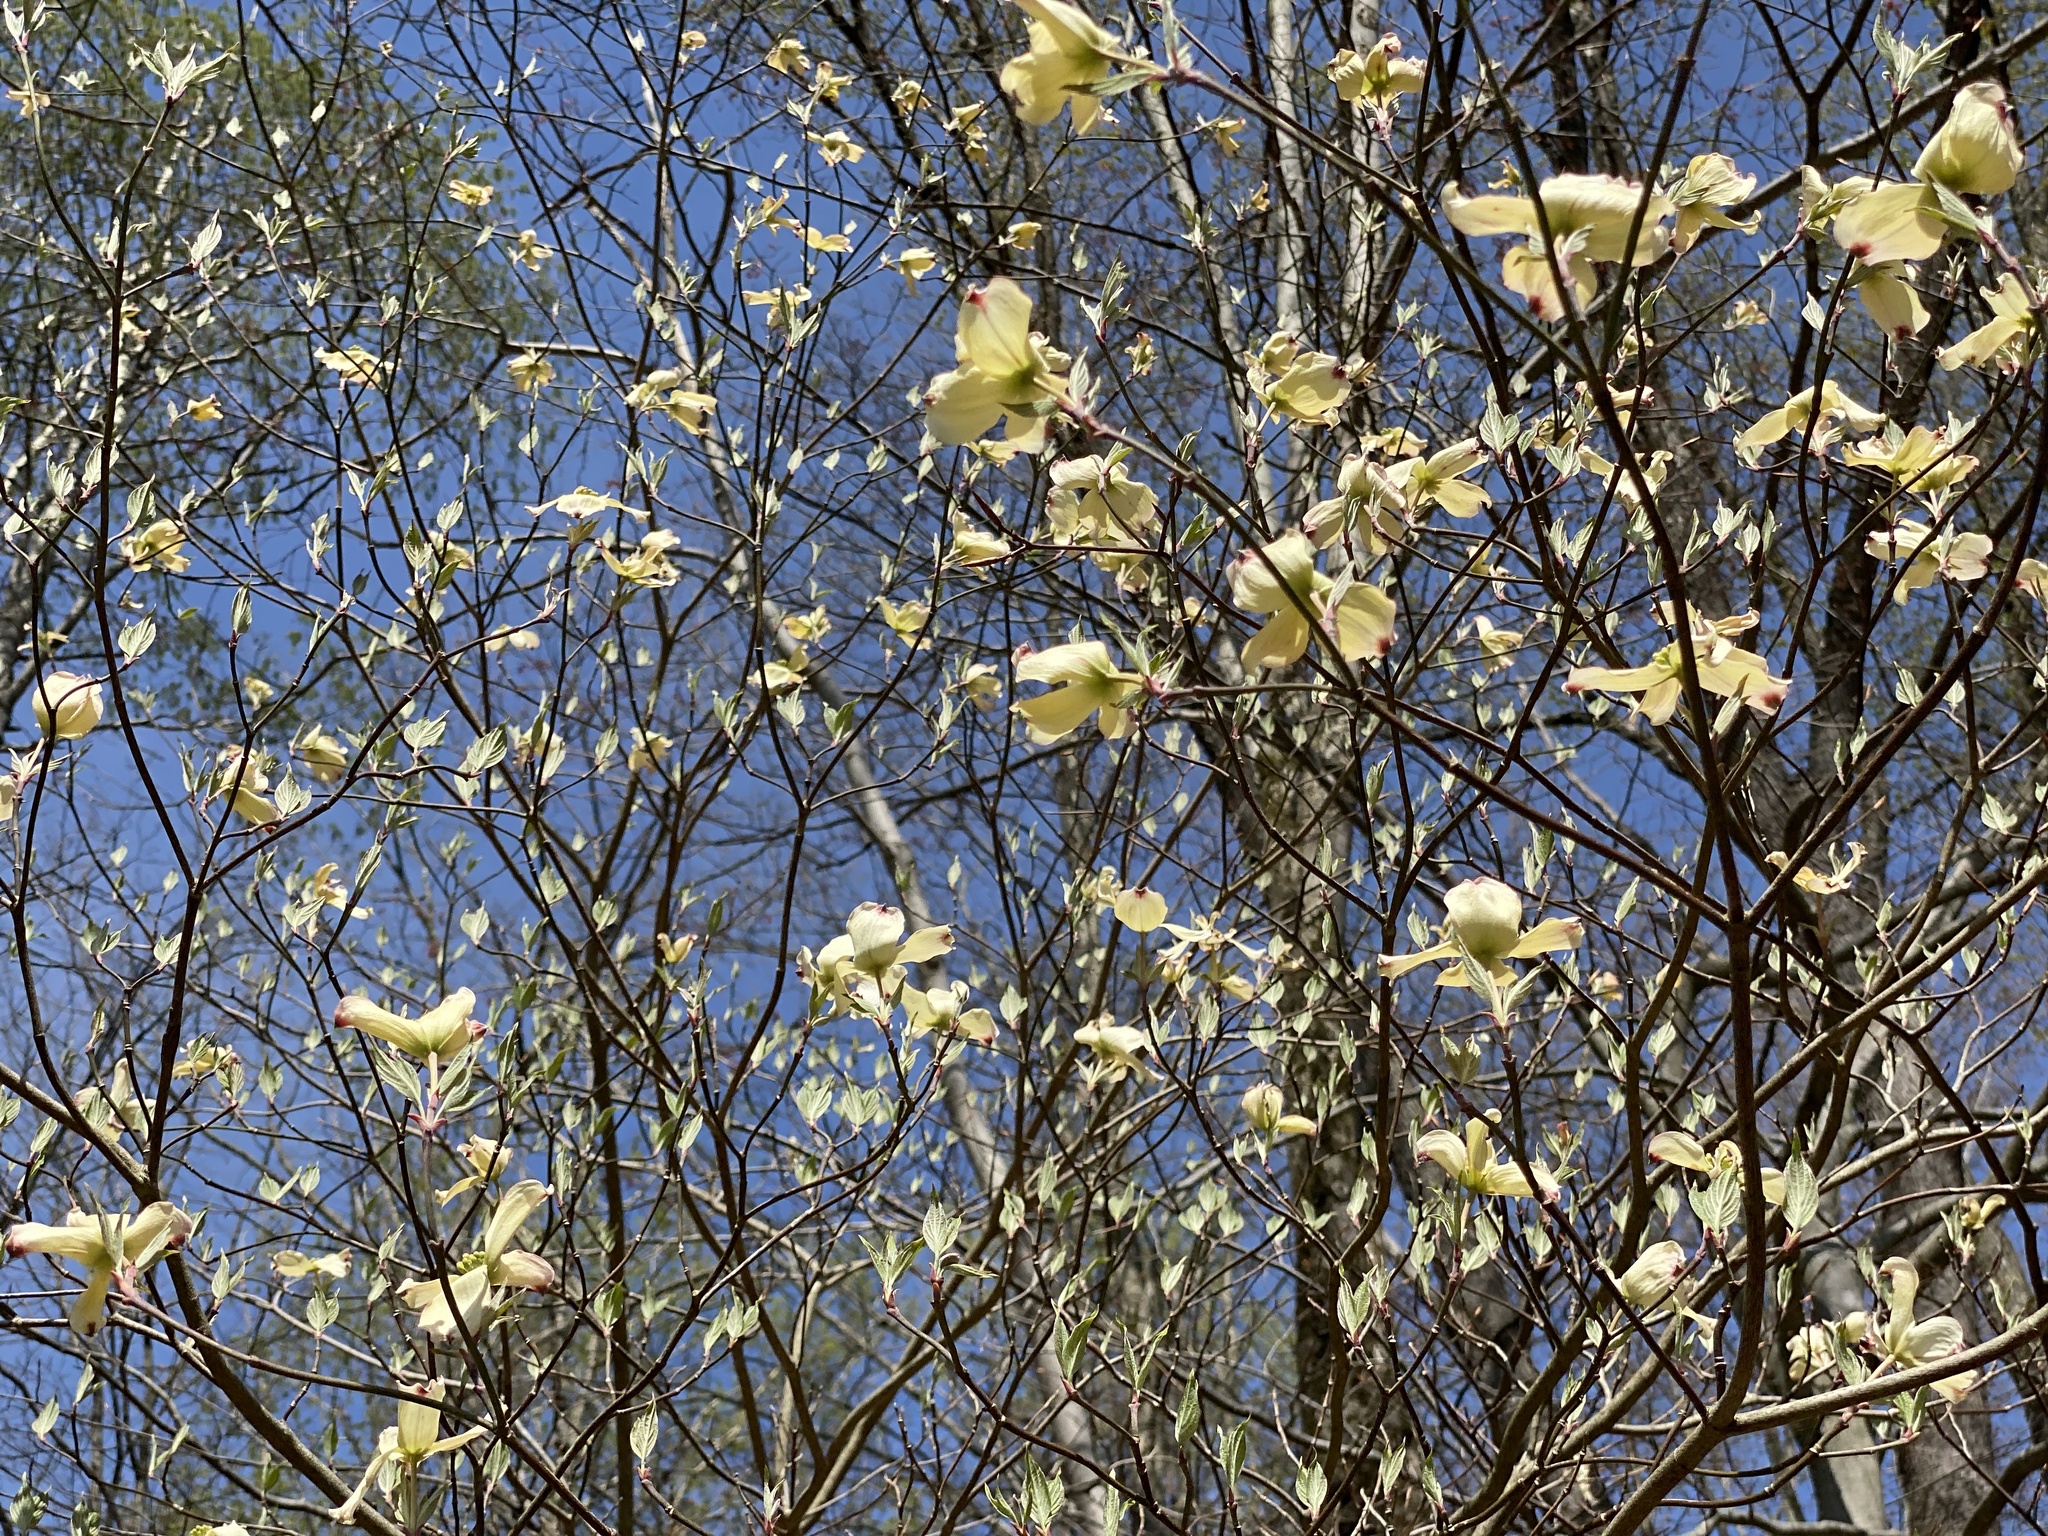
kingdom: Plantae
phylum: Tracheophyta
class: Magnoliopsida
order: Cornales
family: Cornaceae
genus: Cornus
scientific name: Cornus florida
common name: Flowering dogwood
